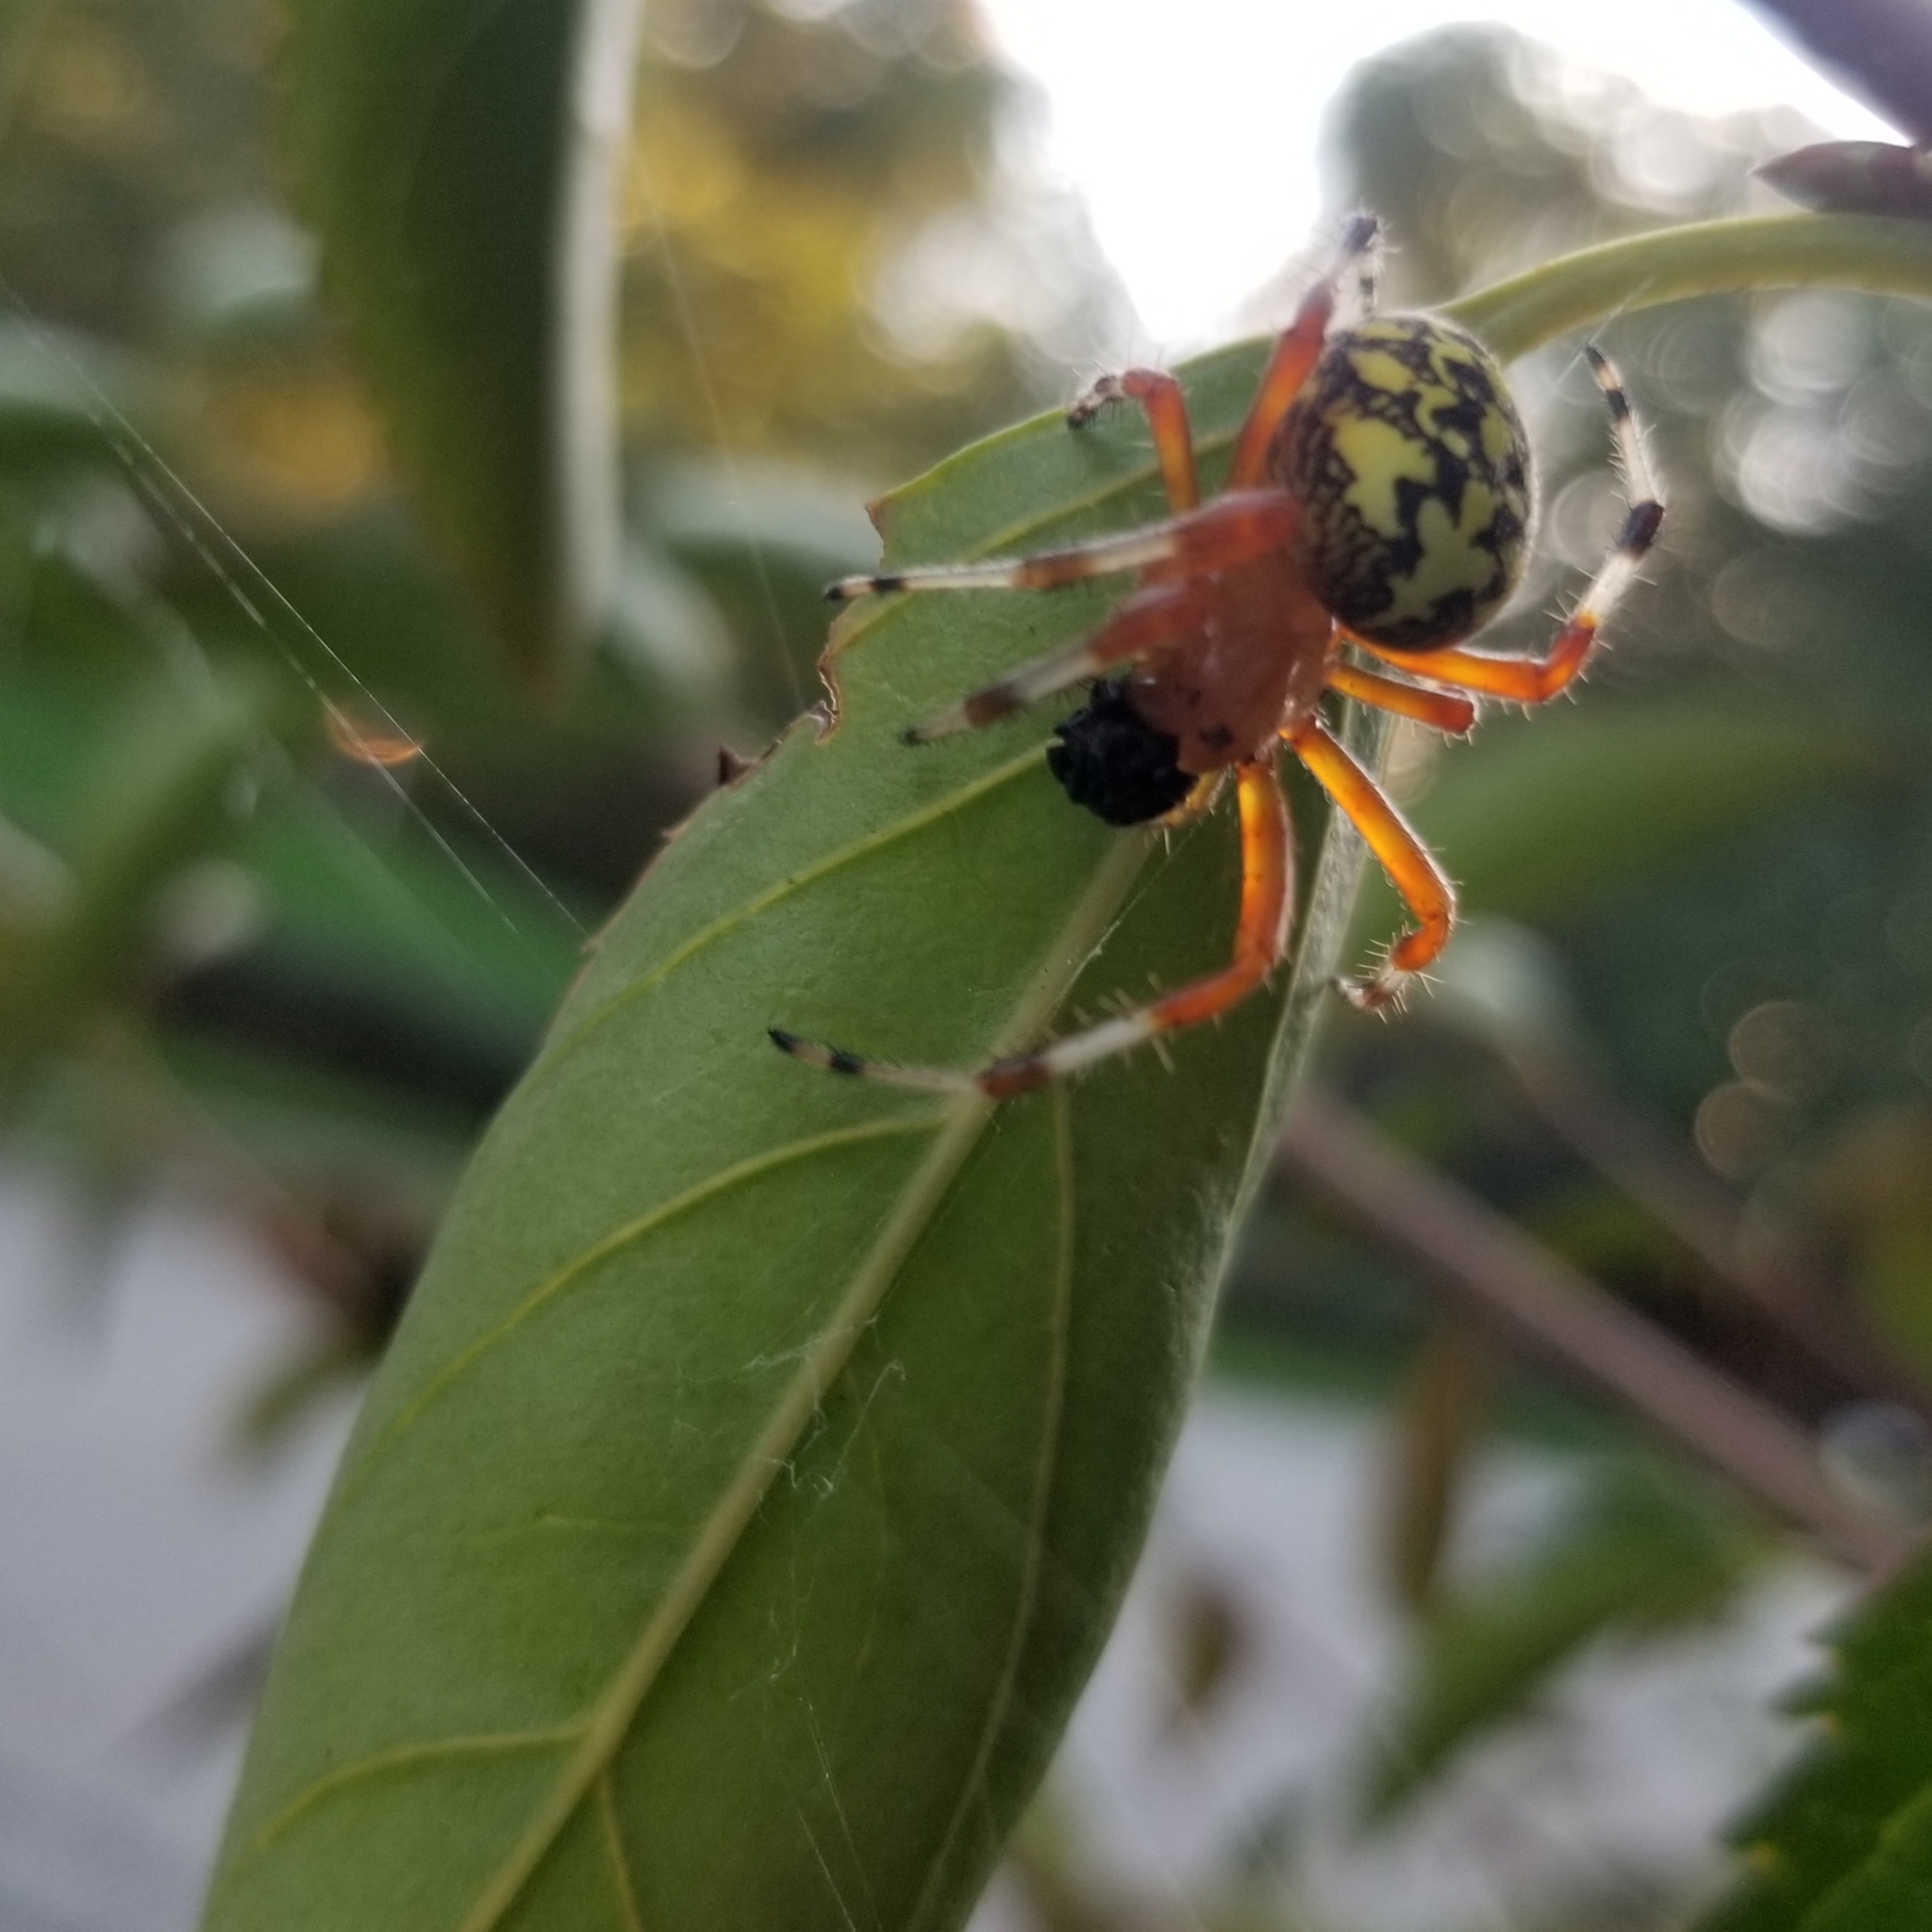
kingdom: Animalia
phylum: Arthropoda
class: Arachnida
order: Araneae
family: Araneidae
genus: Araneus
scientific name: Araneus marmoreus
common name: Marbled orbweaver
